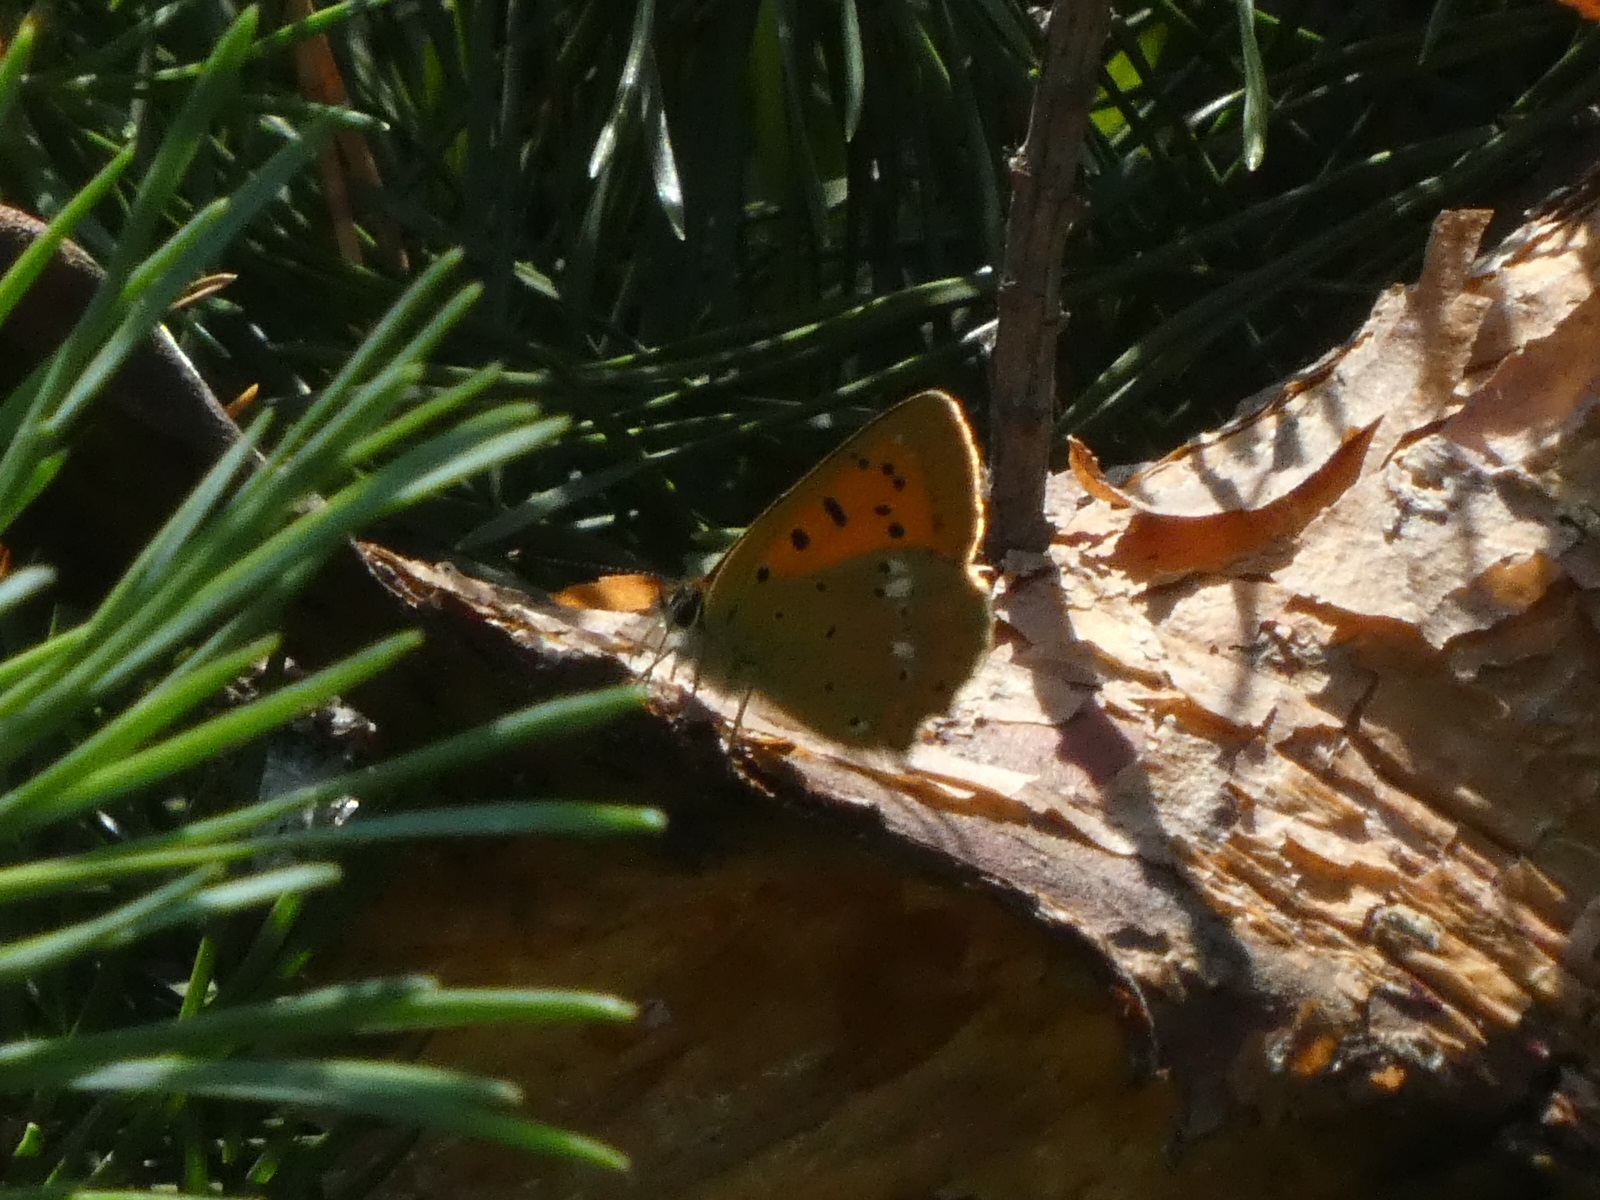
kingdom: Animalia
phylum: Arthropoda
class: Insecta
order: Lepidoptera
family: Lycaenidae
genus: Lycaena
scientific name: Lycaena virgaureae
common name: Scarce copper
